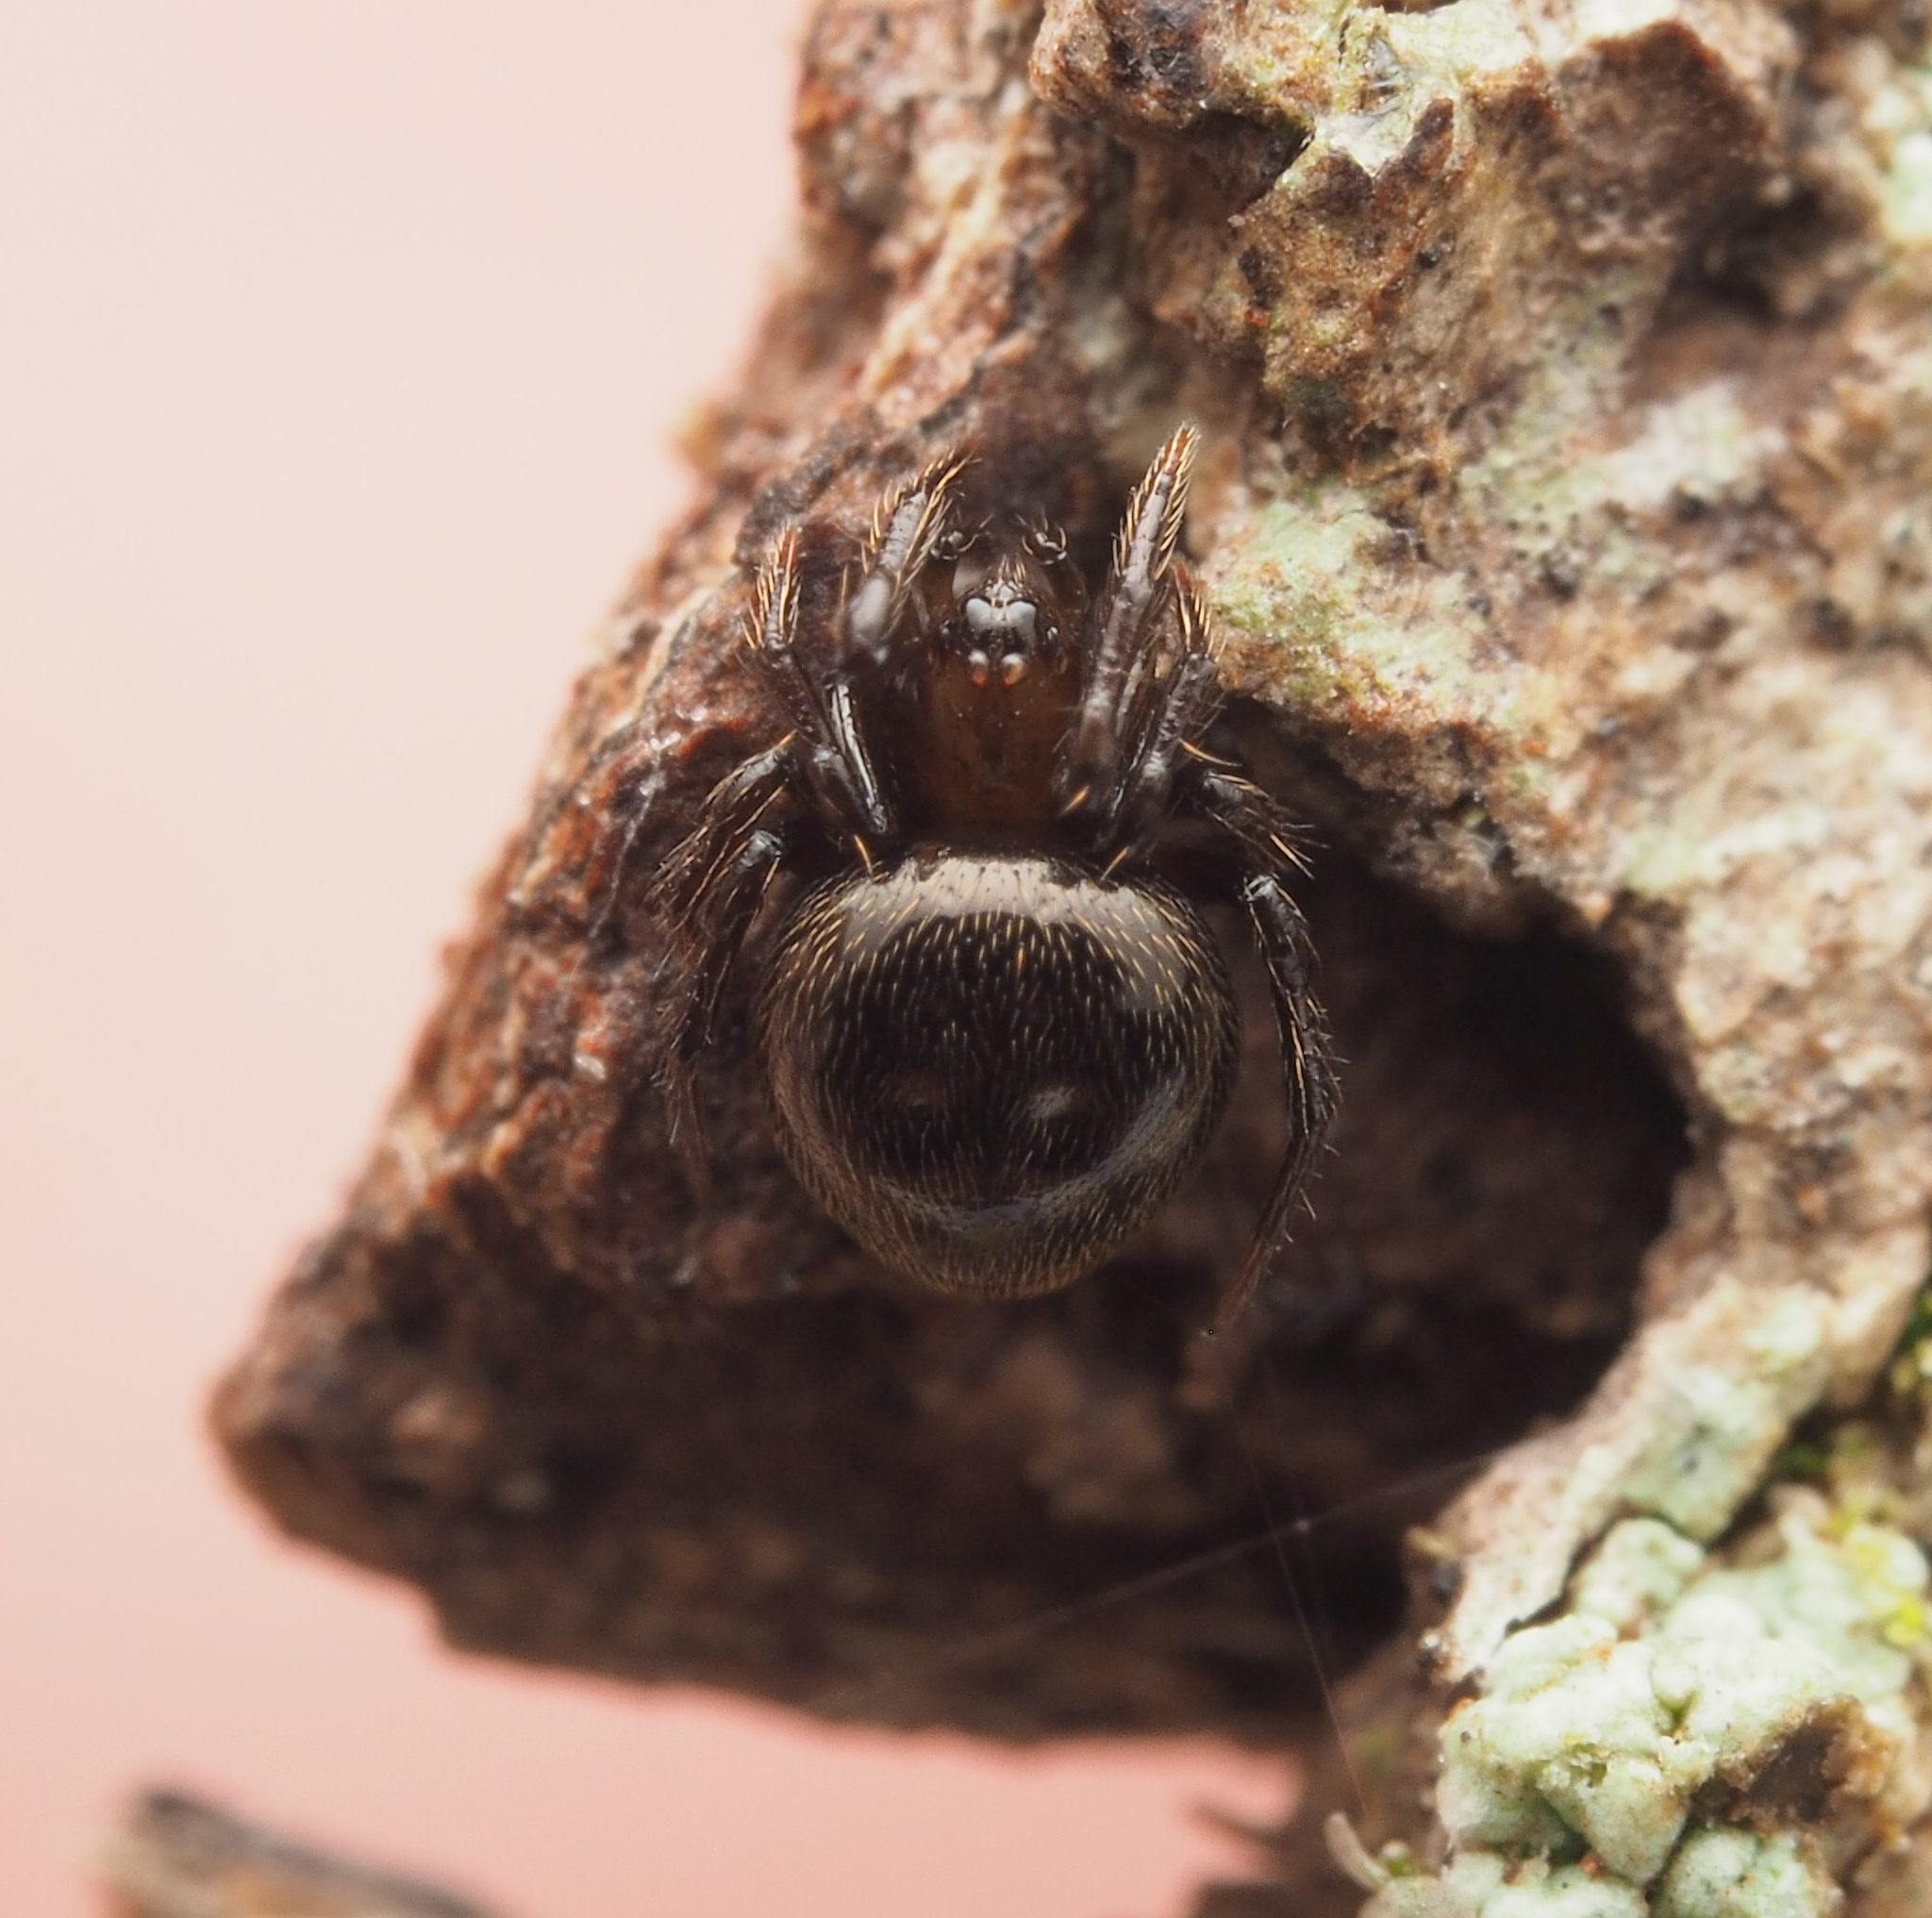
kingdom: Animalia
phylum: Arthropoda
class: Arachnida
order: Araneae
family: Theridiidae
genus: Lasaeola
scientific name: Lasaeola
